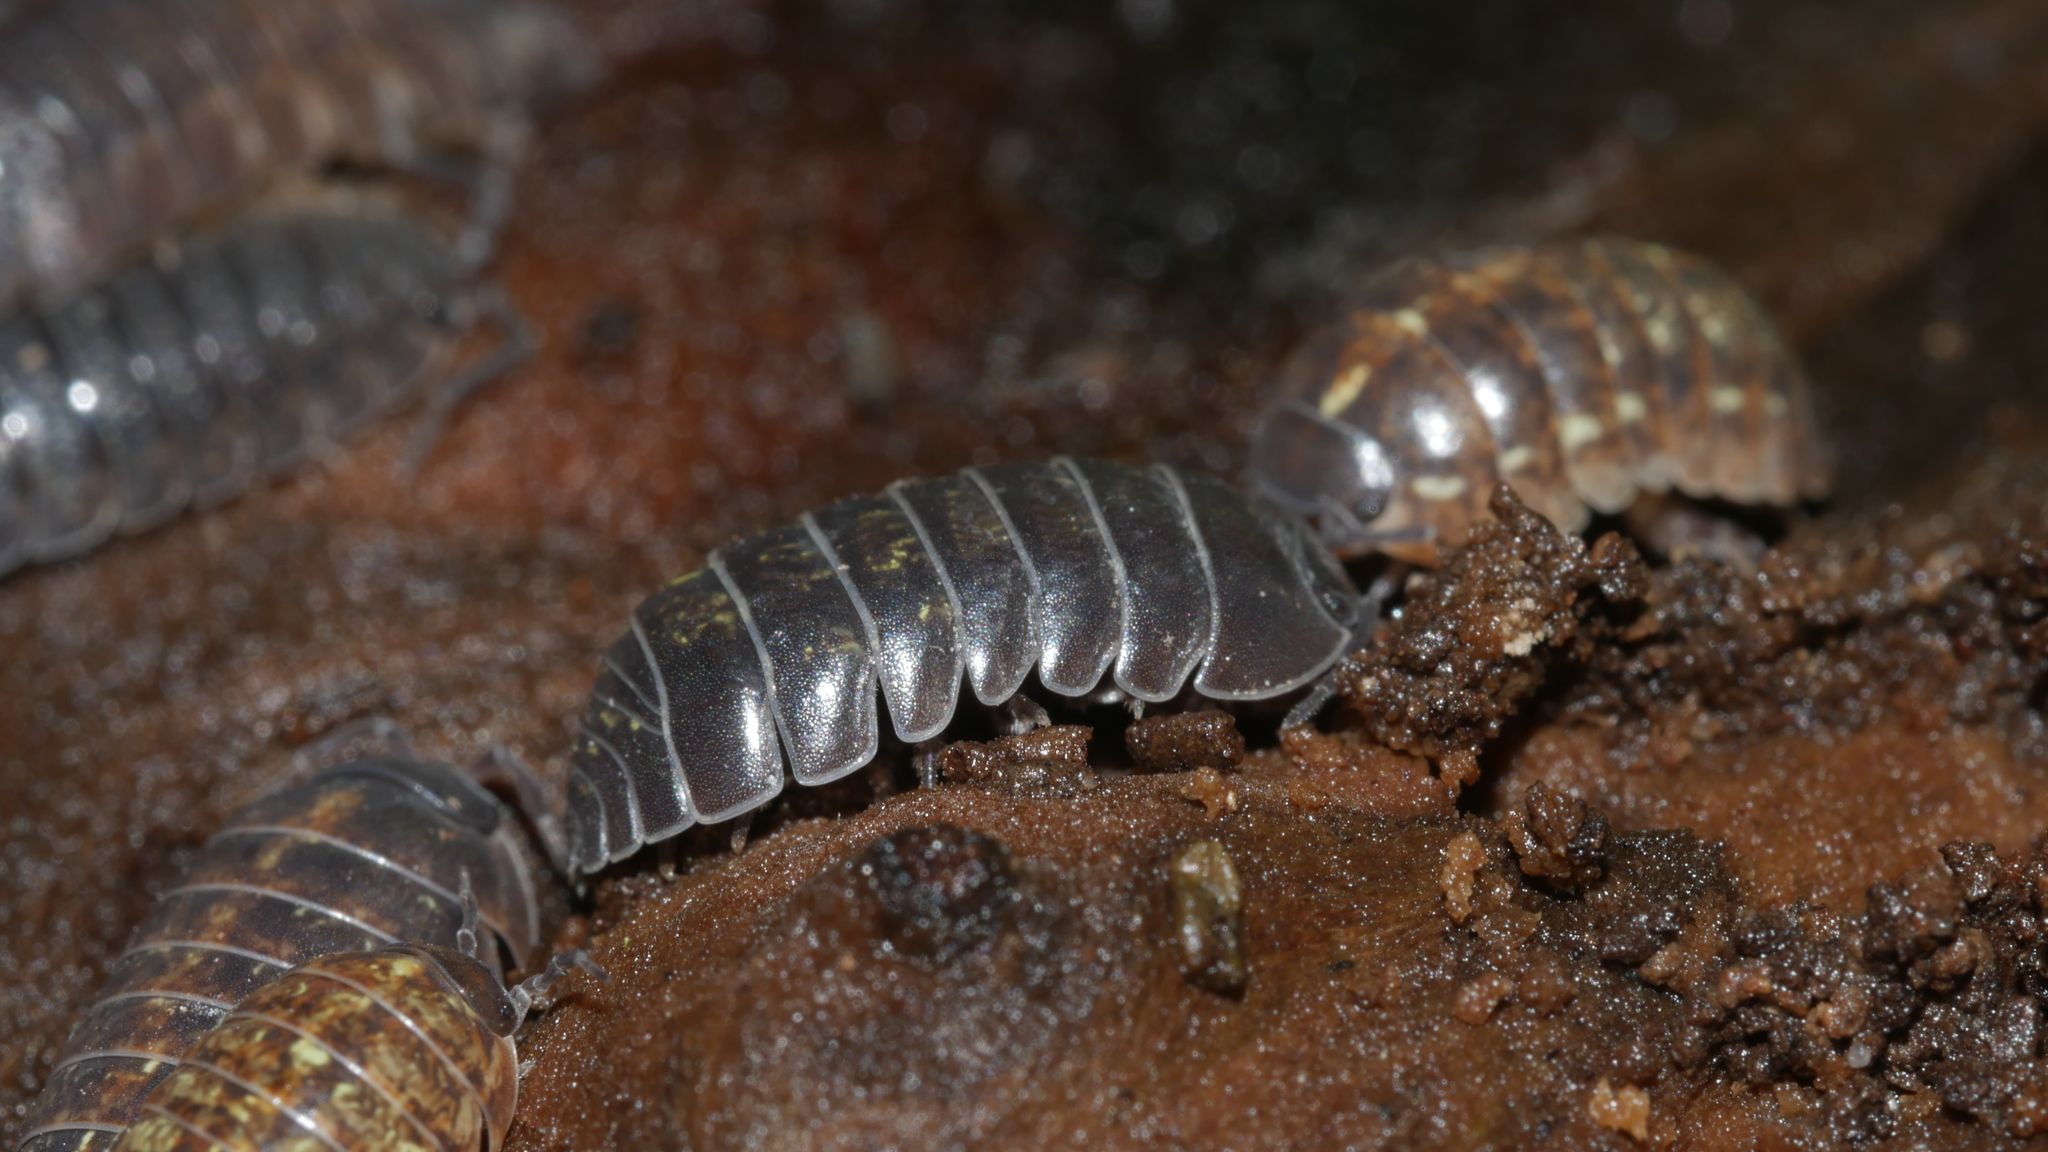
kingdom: Animalia
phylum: Arthropoda
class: Malacostraca
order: Isopoda
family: Armadillidiidae
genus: Armadillidium
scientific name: Armadillidium vulgare
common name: Common pill woodlouse
